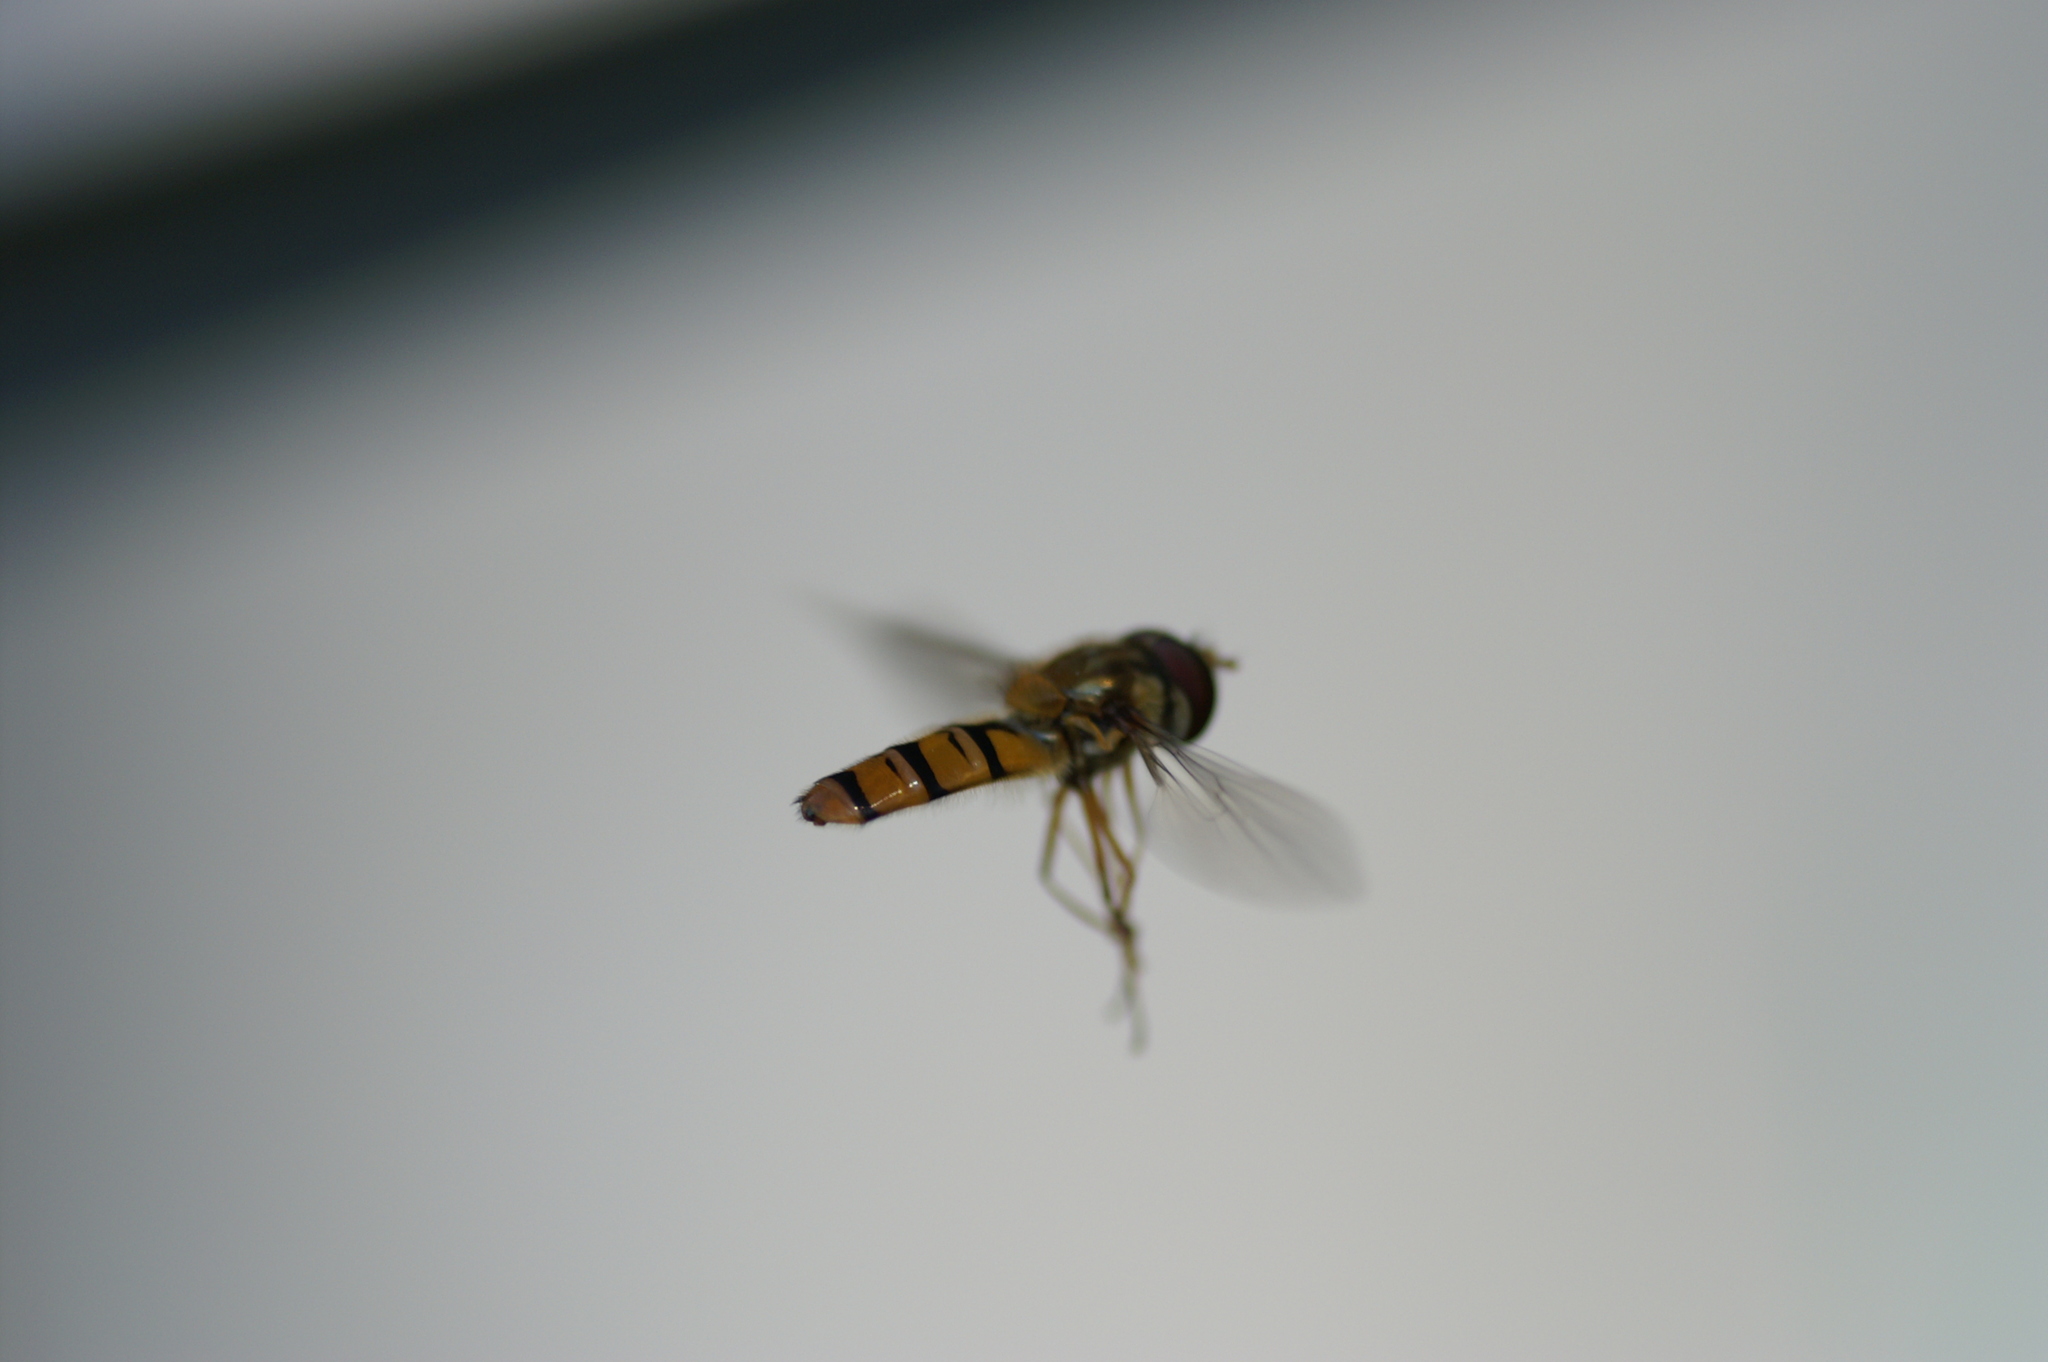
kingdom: Animalia
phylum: Arthropoda
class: Insecta
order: Diptera
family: Syrphidae
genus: Episyrphus
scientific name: Episyrphus balteatus
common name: Marmalade hoverfly
